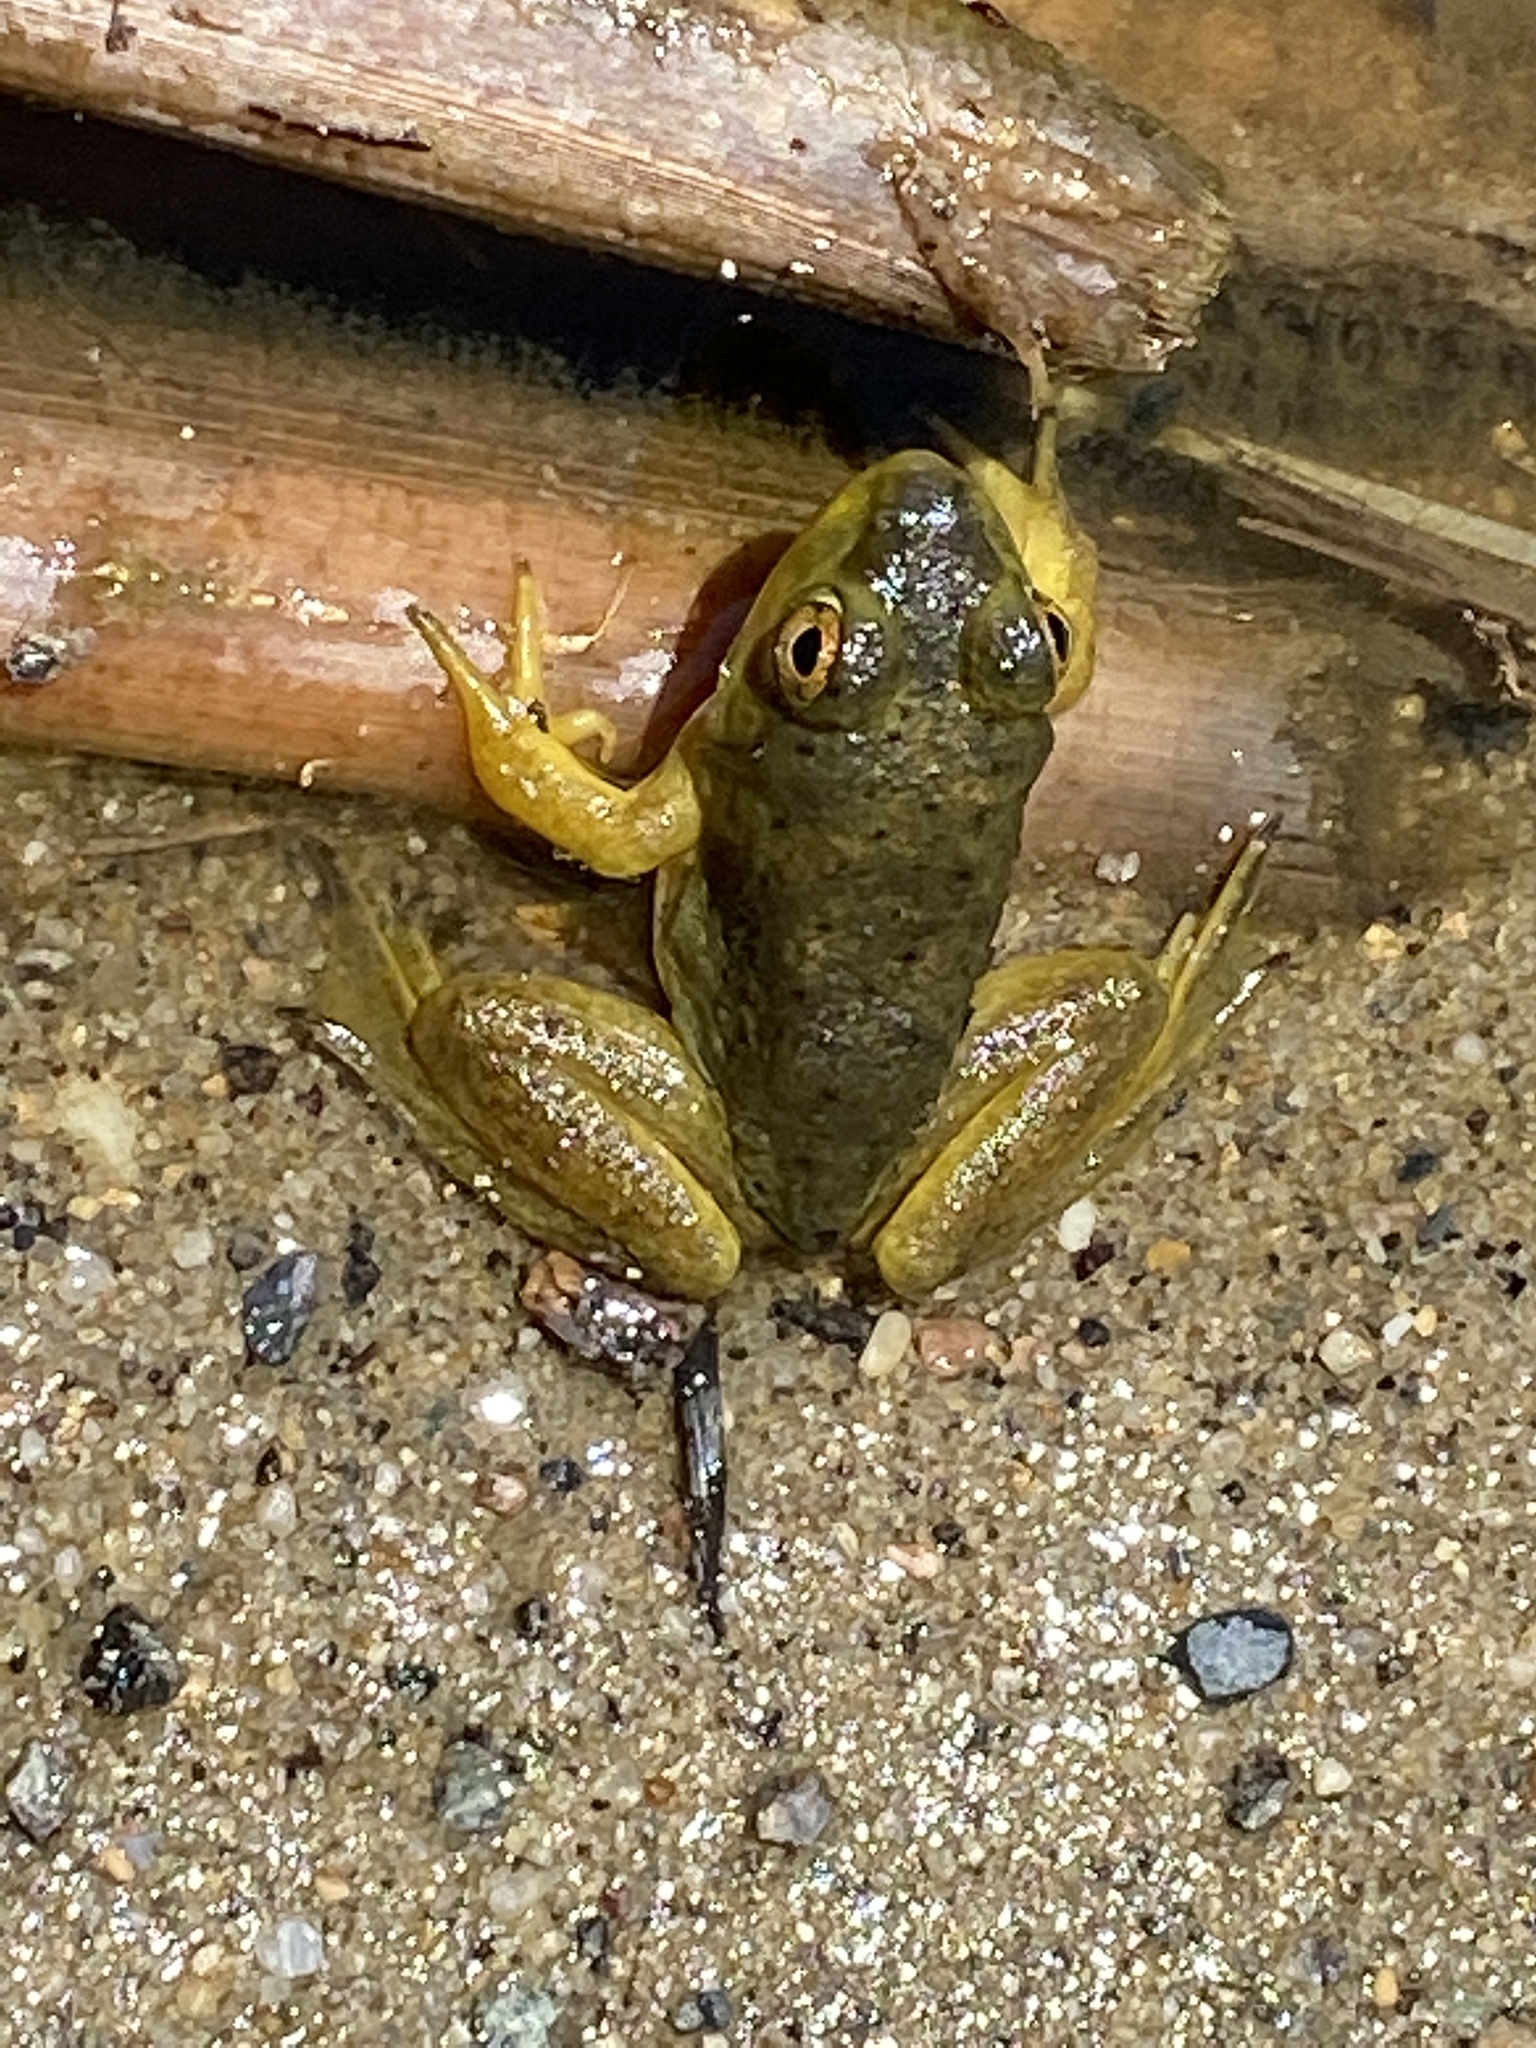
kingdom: Animalia
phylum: Chordata
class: Amphibia
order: Anura
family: Ranidae
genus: Lithobates
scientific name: Lithobates catesbeianus
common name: American bullfrog
